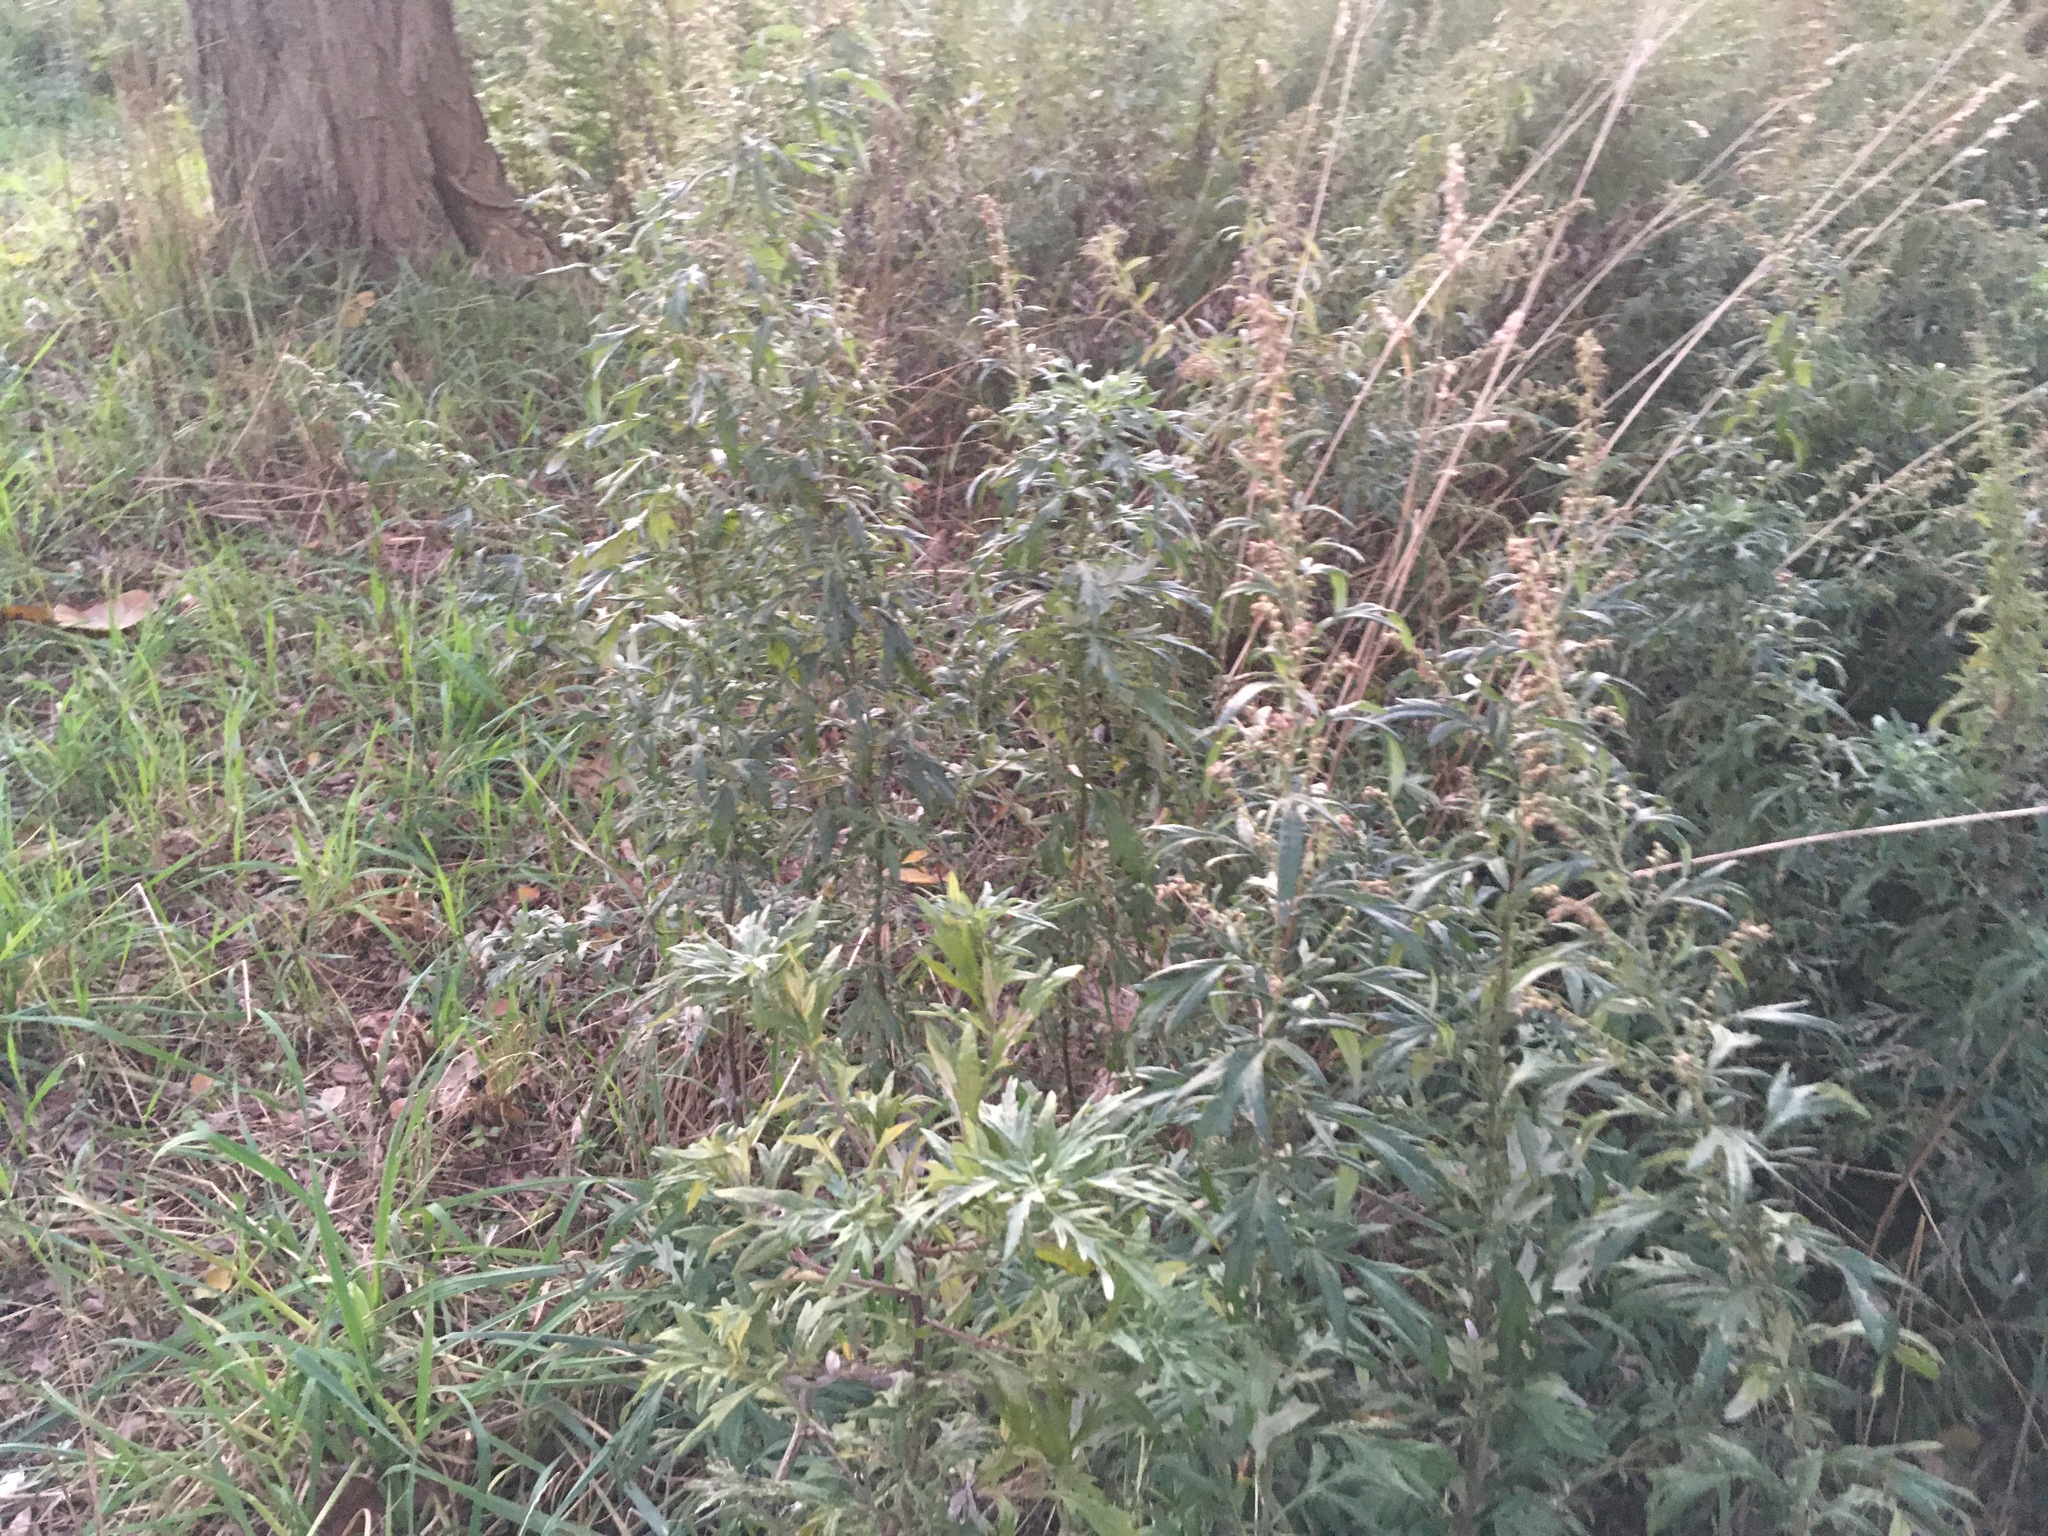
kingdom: Plantae
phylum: Tracheophyta
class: Magnoliopsida
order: Asterales
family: Asteraceae
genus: Artemisia
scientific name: Artemisia vulgaris
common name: Mugwort
